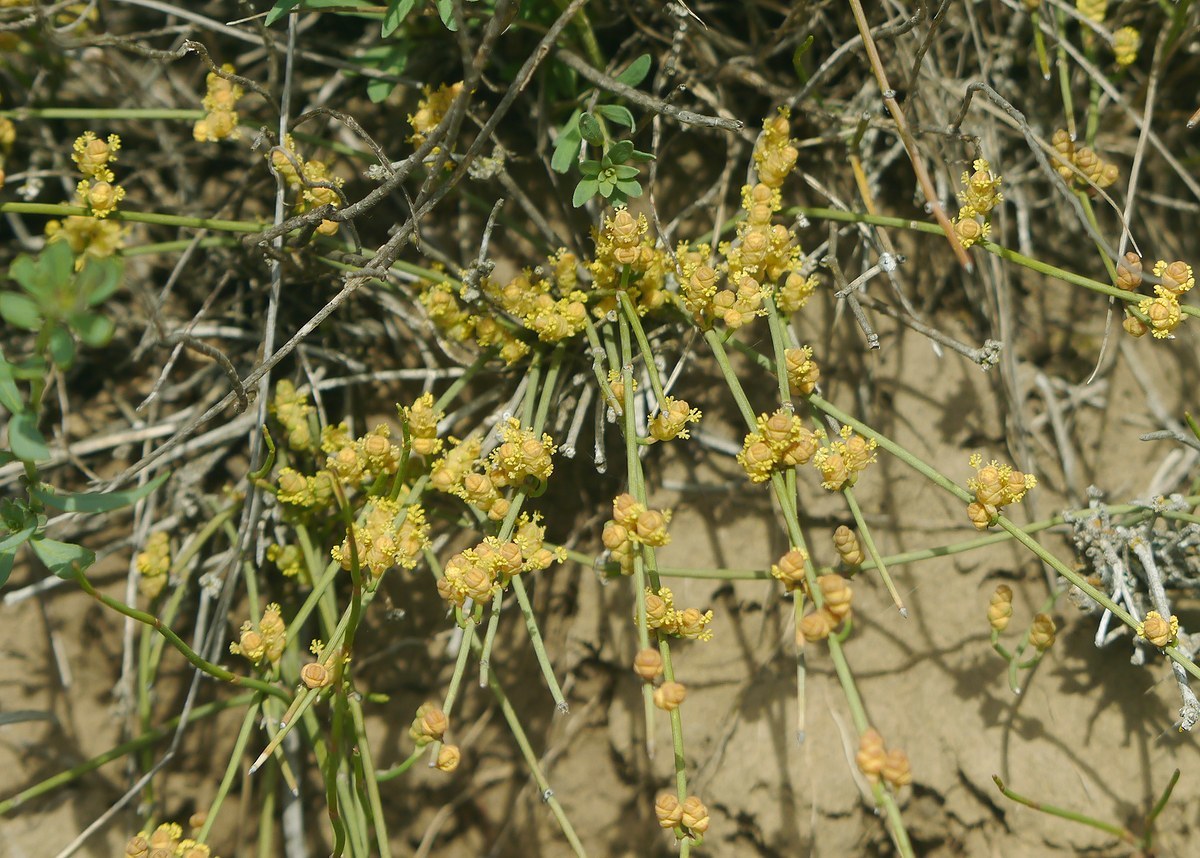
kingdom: Plantae
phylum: Tracheophyta
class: Gnetopsida
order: Ephedrales
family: Ephedraceae
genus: Ephedra
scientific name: Ephedra distachya
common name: Sea grape
